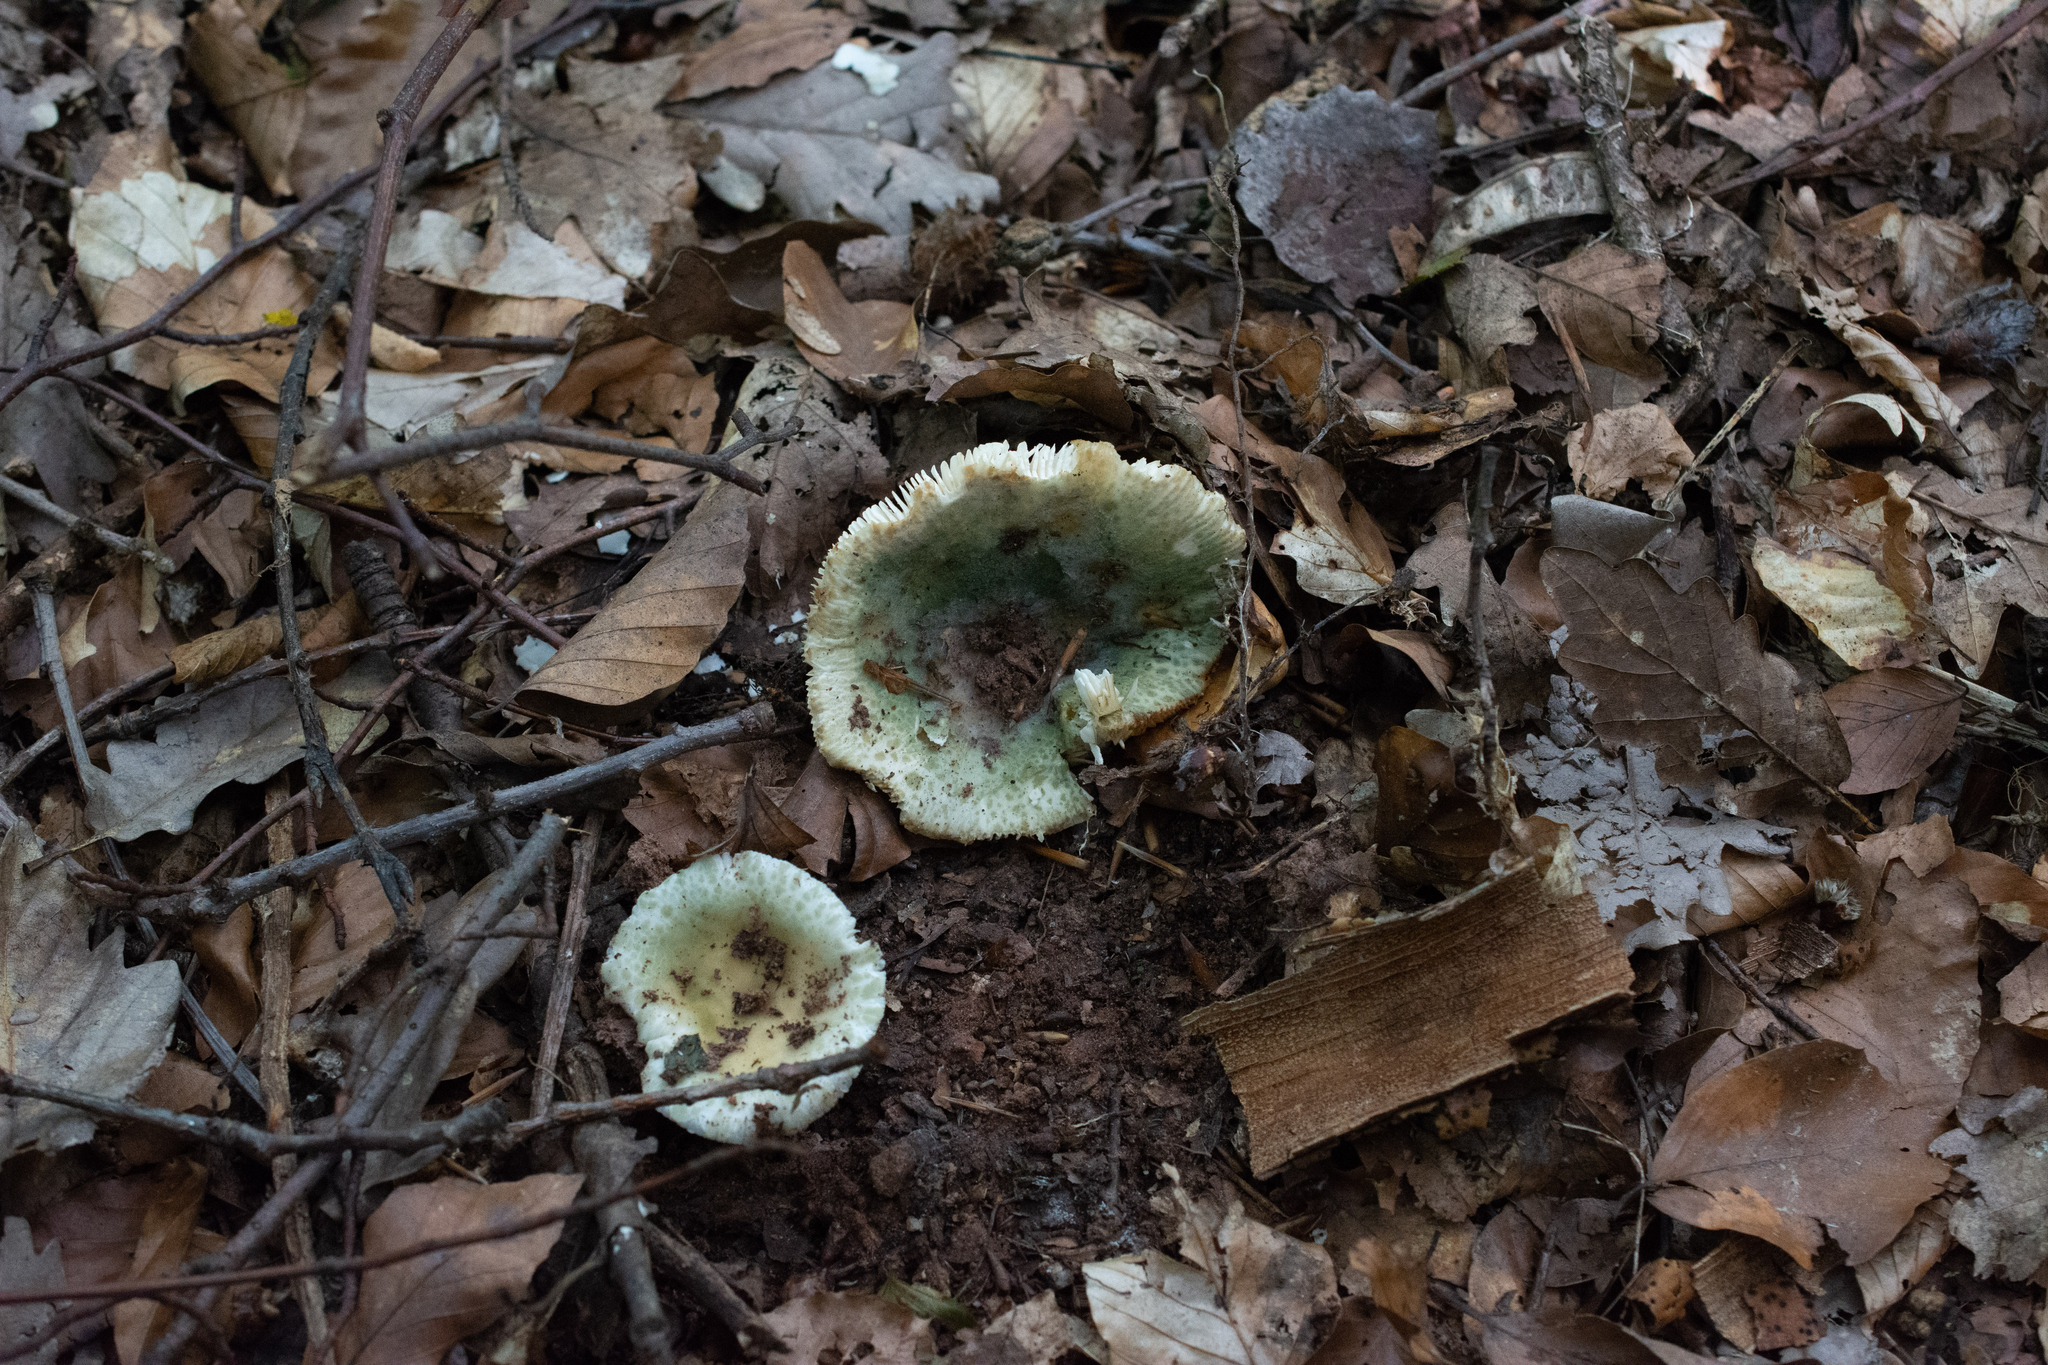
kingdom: Fungi
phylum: Basidiomycota
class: Agaricomycetes
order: Russulales
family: Russulaceae
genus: Russula
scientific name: Russula virescens
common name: Greencracked brittlegill
